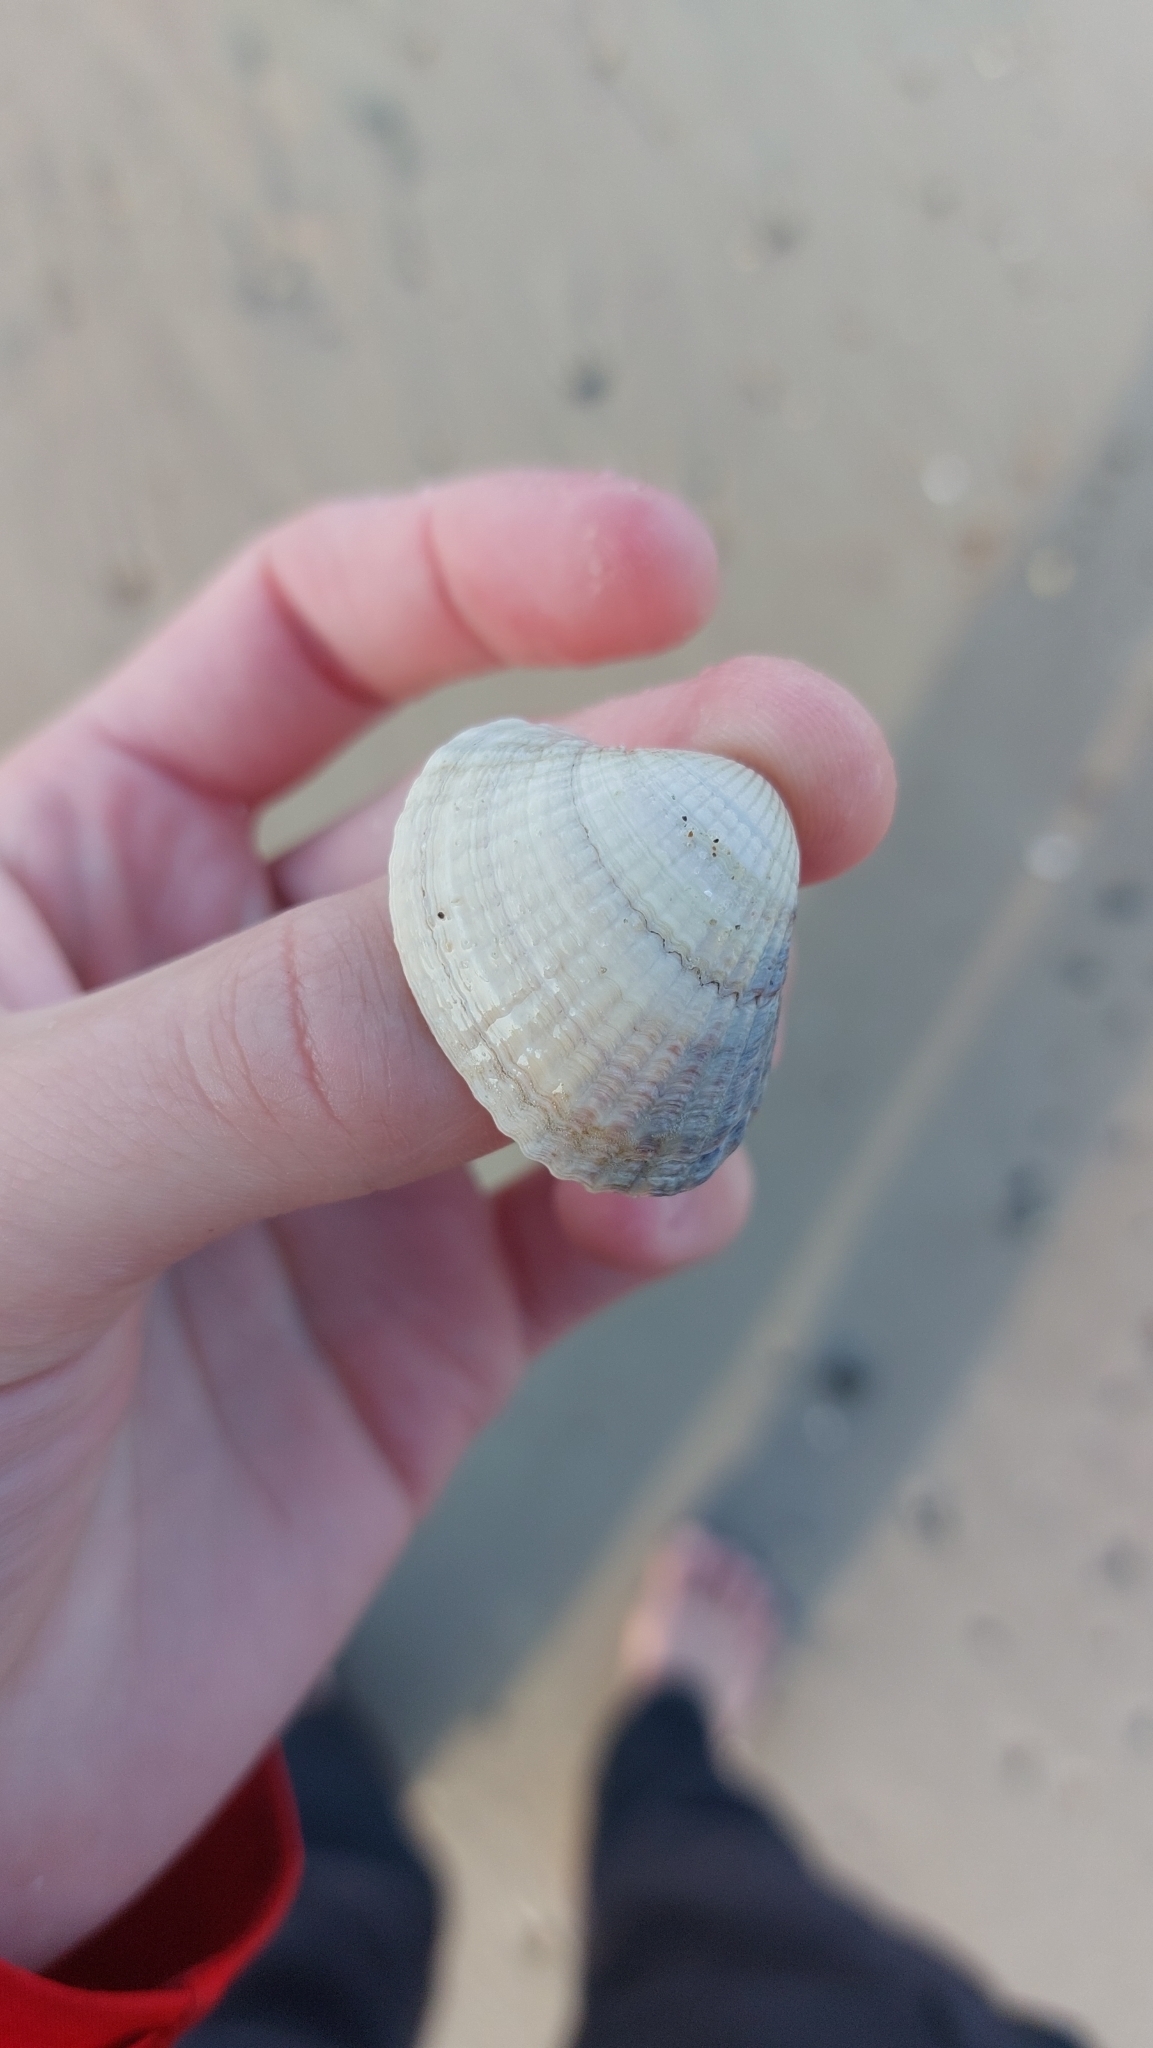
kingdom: Animalia
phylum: Mollusca
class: Bivalvia
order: Cardiida
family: Cardiidae
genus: Cerastoderma
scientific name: Cerastoderma edule
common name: Common cockle
